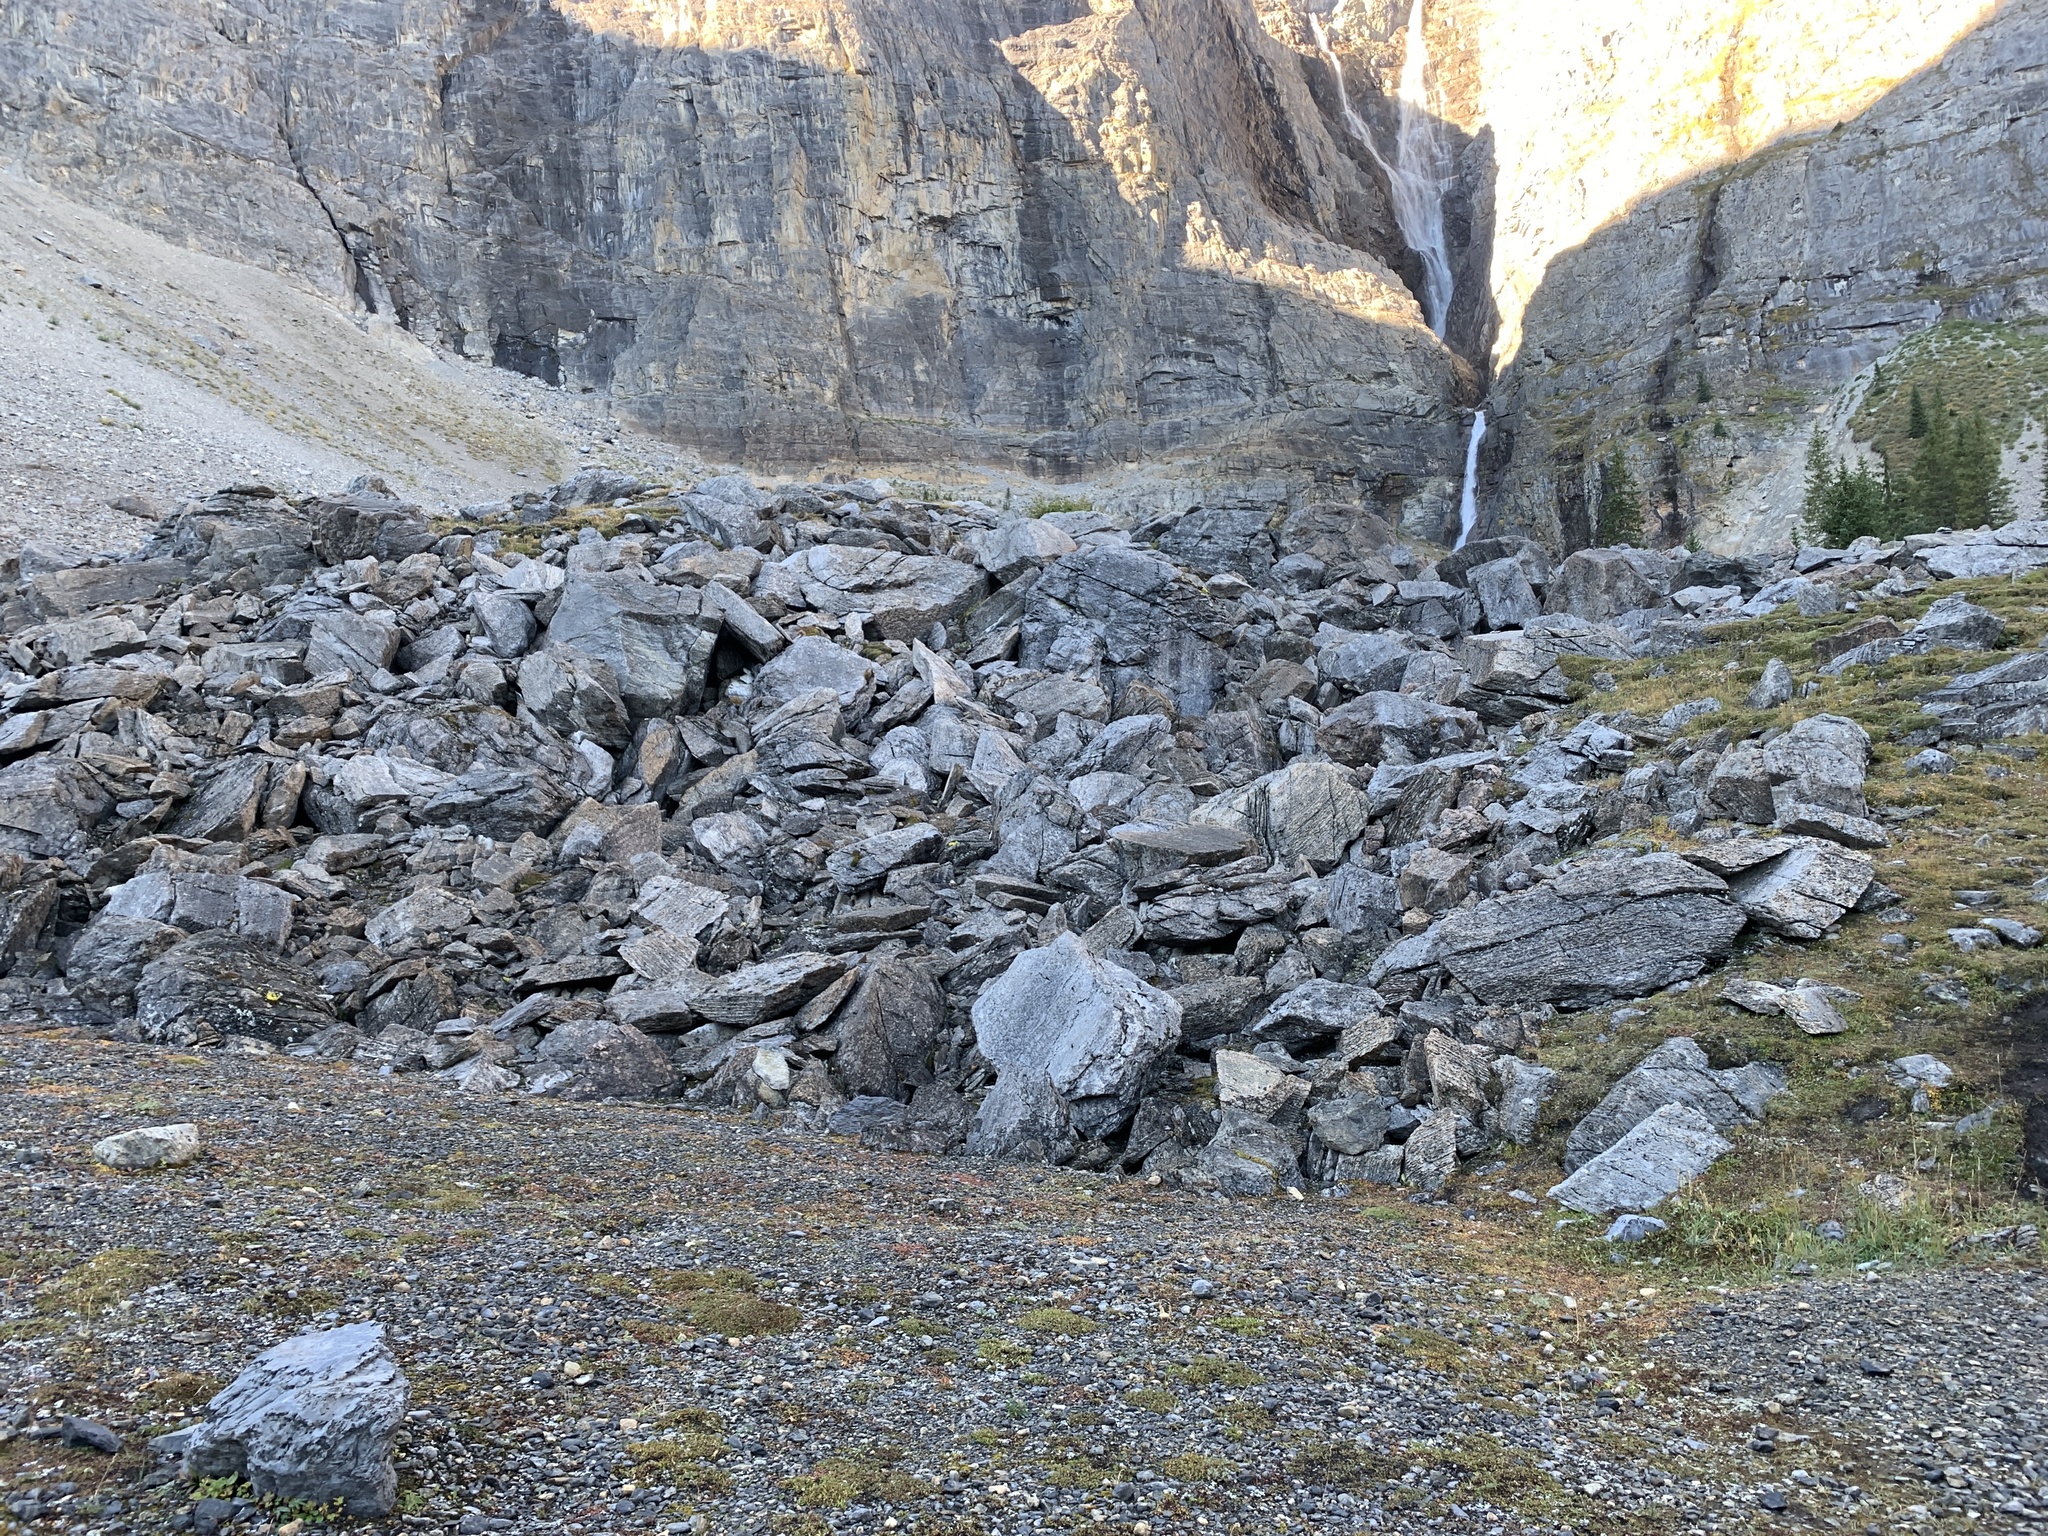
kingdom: Animalia
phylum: Chordata
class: Mammalia
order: Lagomorpha
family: Ochotonidae
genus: Ochotona
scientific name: Ochotona princeps
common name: American pika
